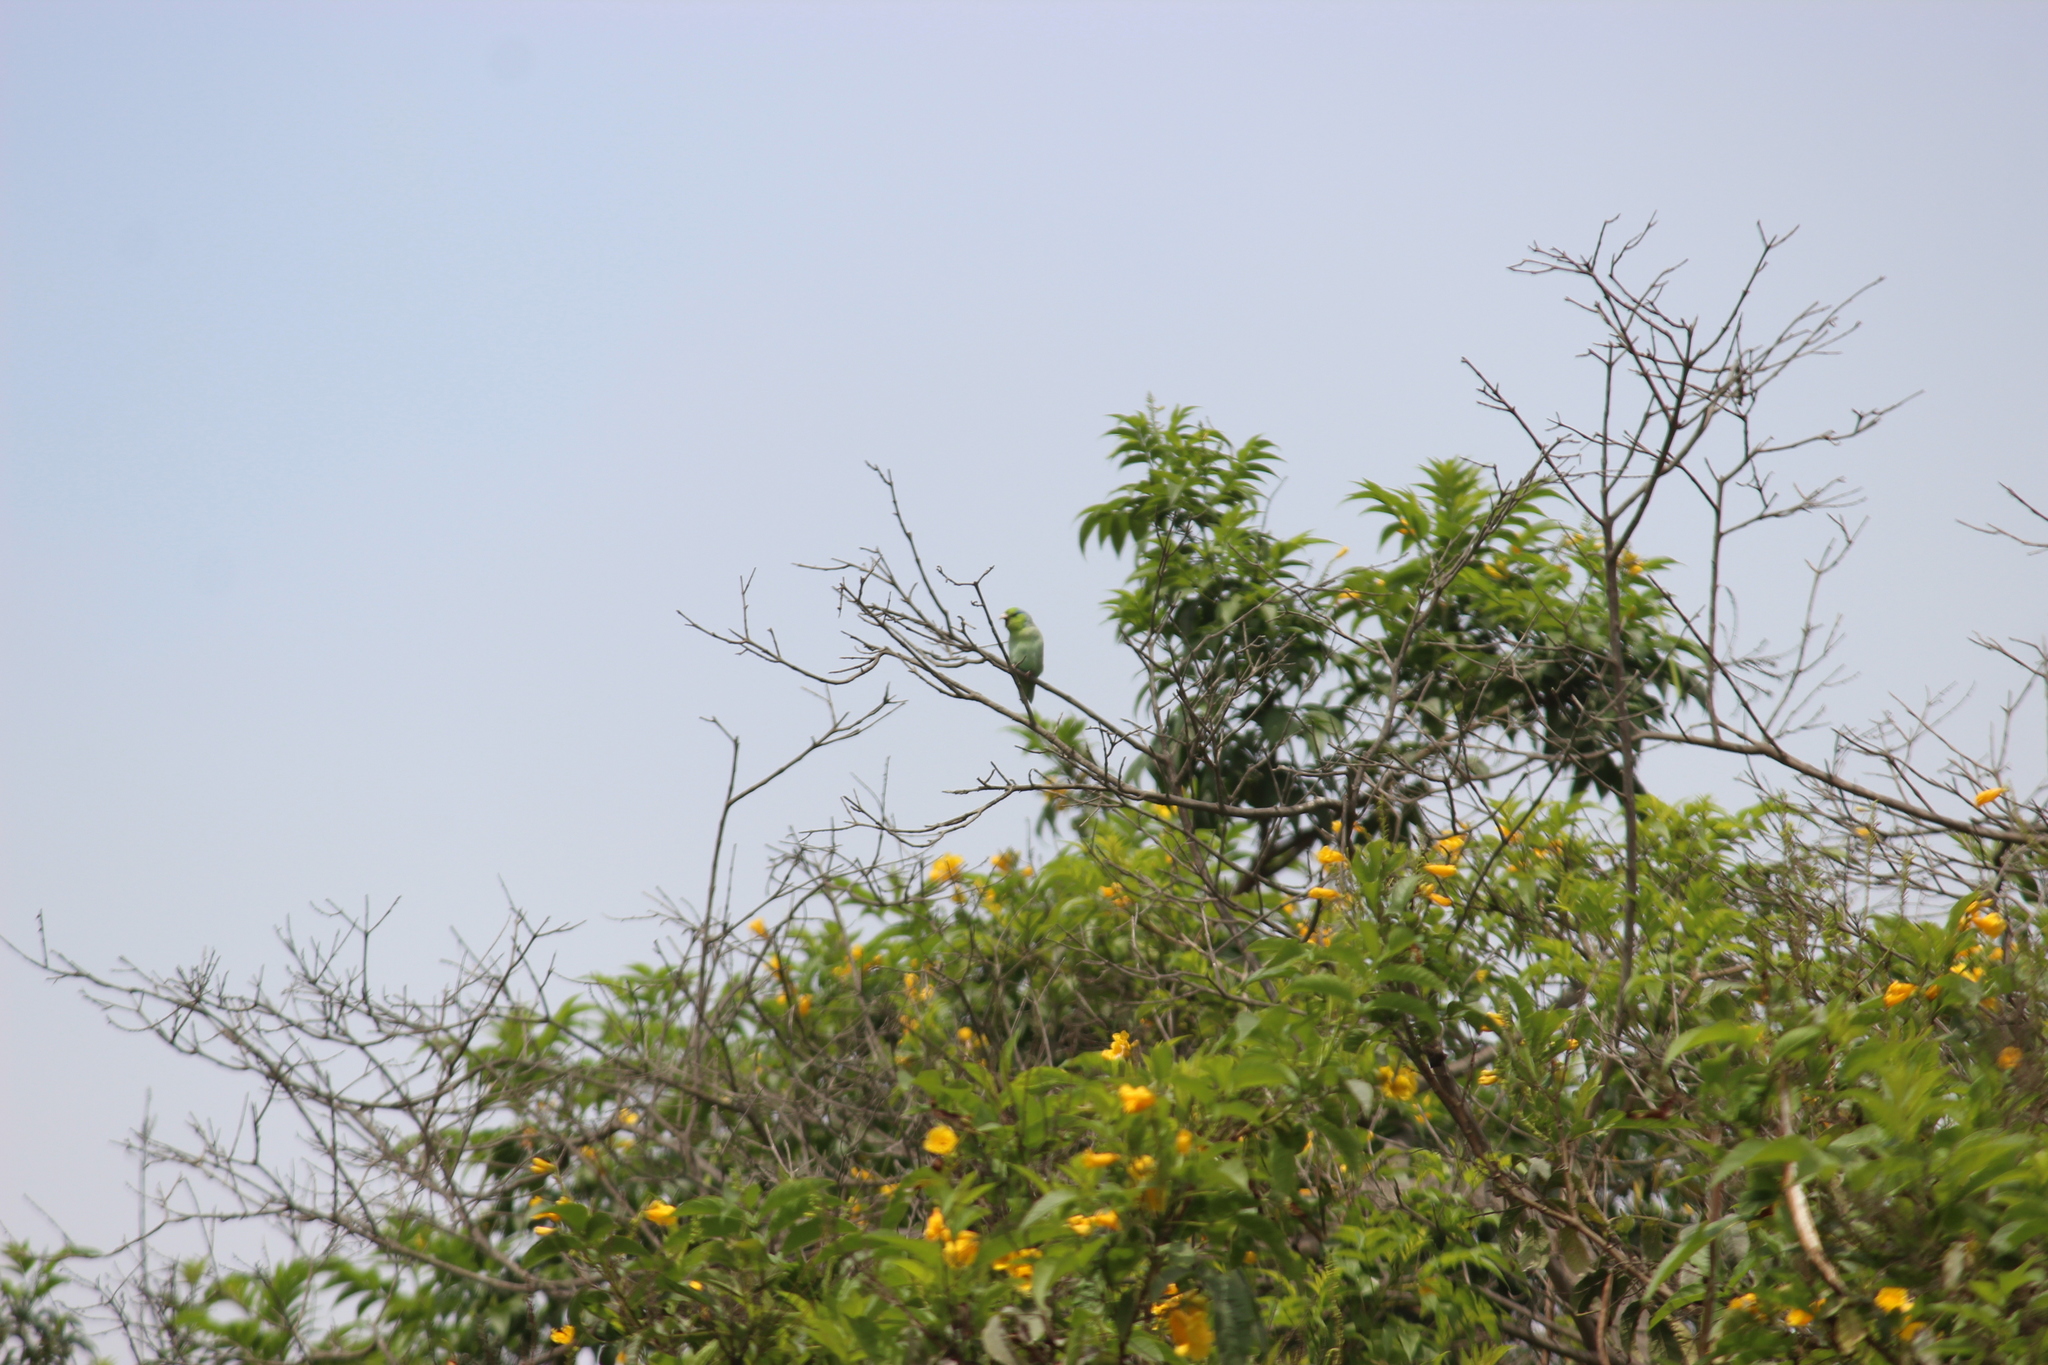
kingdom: Animalia
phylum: Chordata
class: Aves
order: Psittaciformes
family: Psittacidae
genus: Forpus
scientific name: Forpus coelestis
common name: Pacific parrotlet
